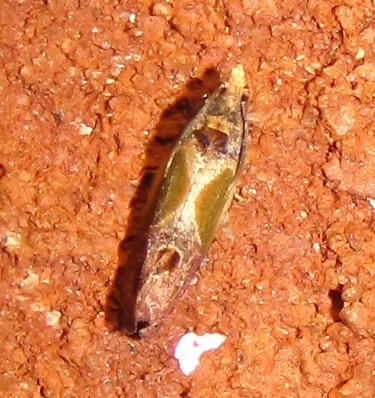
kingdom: Animalia
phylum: Arthropoda
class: Insecta
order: Lepidoptera
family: Tortricidae
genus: Eumarozia
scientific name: Eumarozia malachitana
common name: Sculptured moth
